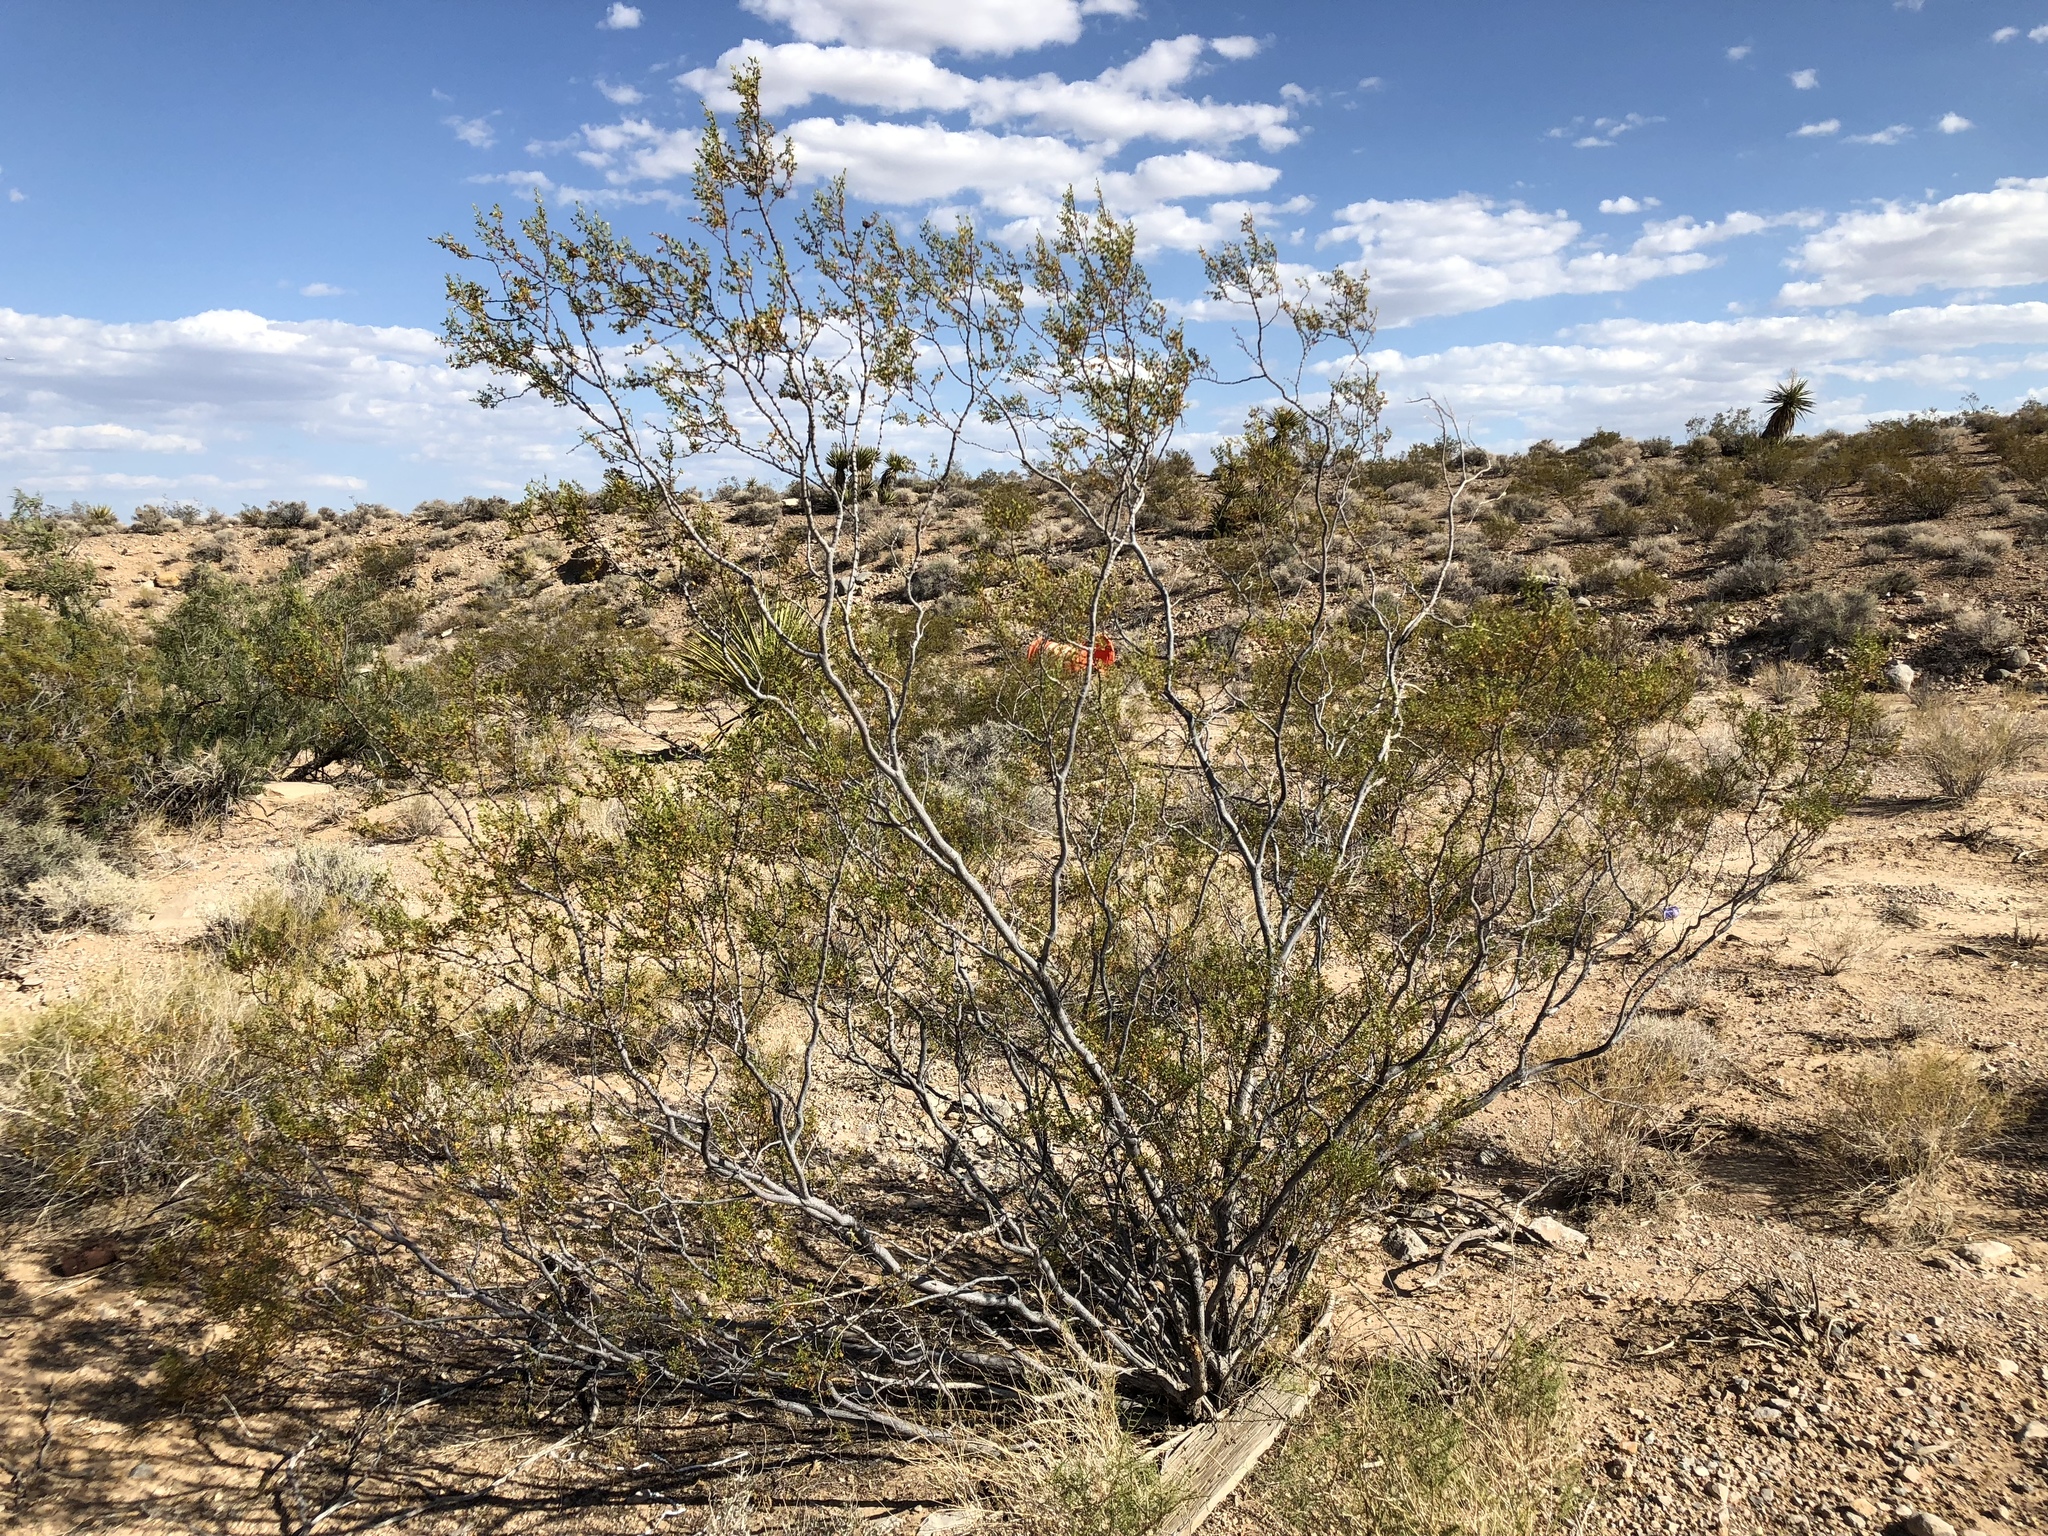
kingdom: Plantae
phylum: Tracheophyta
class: Magnoliopsida
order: Zygophyllales
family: Zygophyllaceae
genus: Larrea
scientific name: Larrea tridentata
